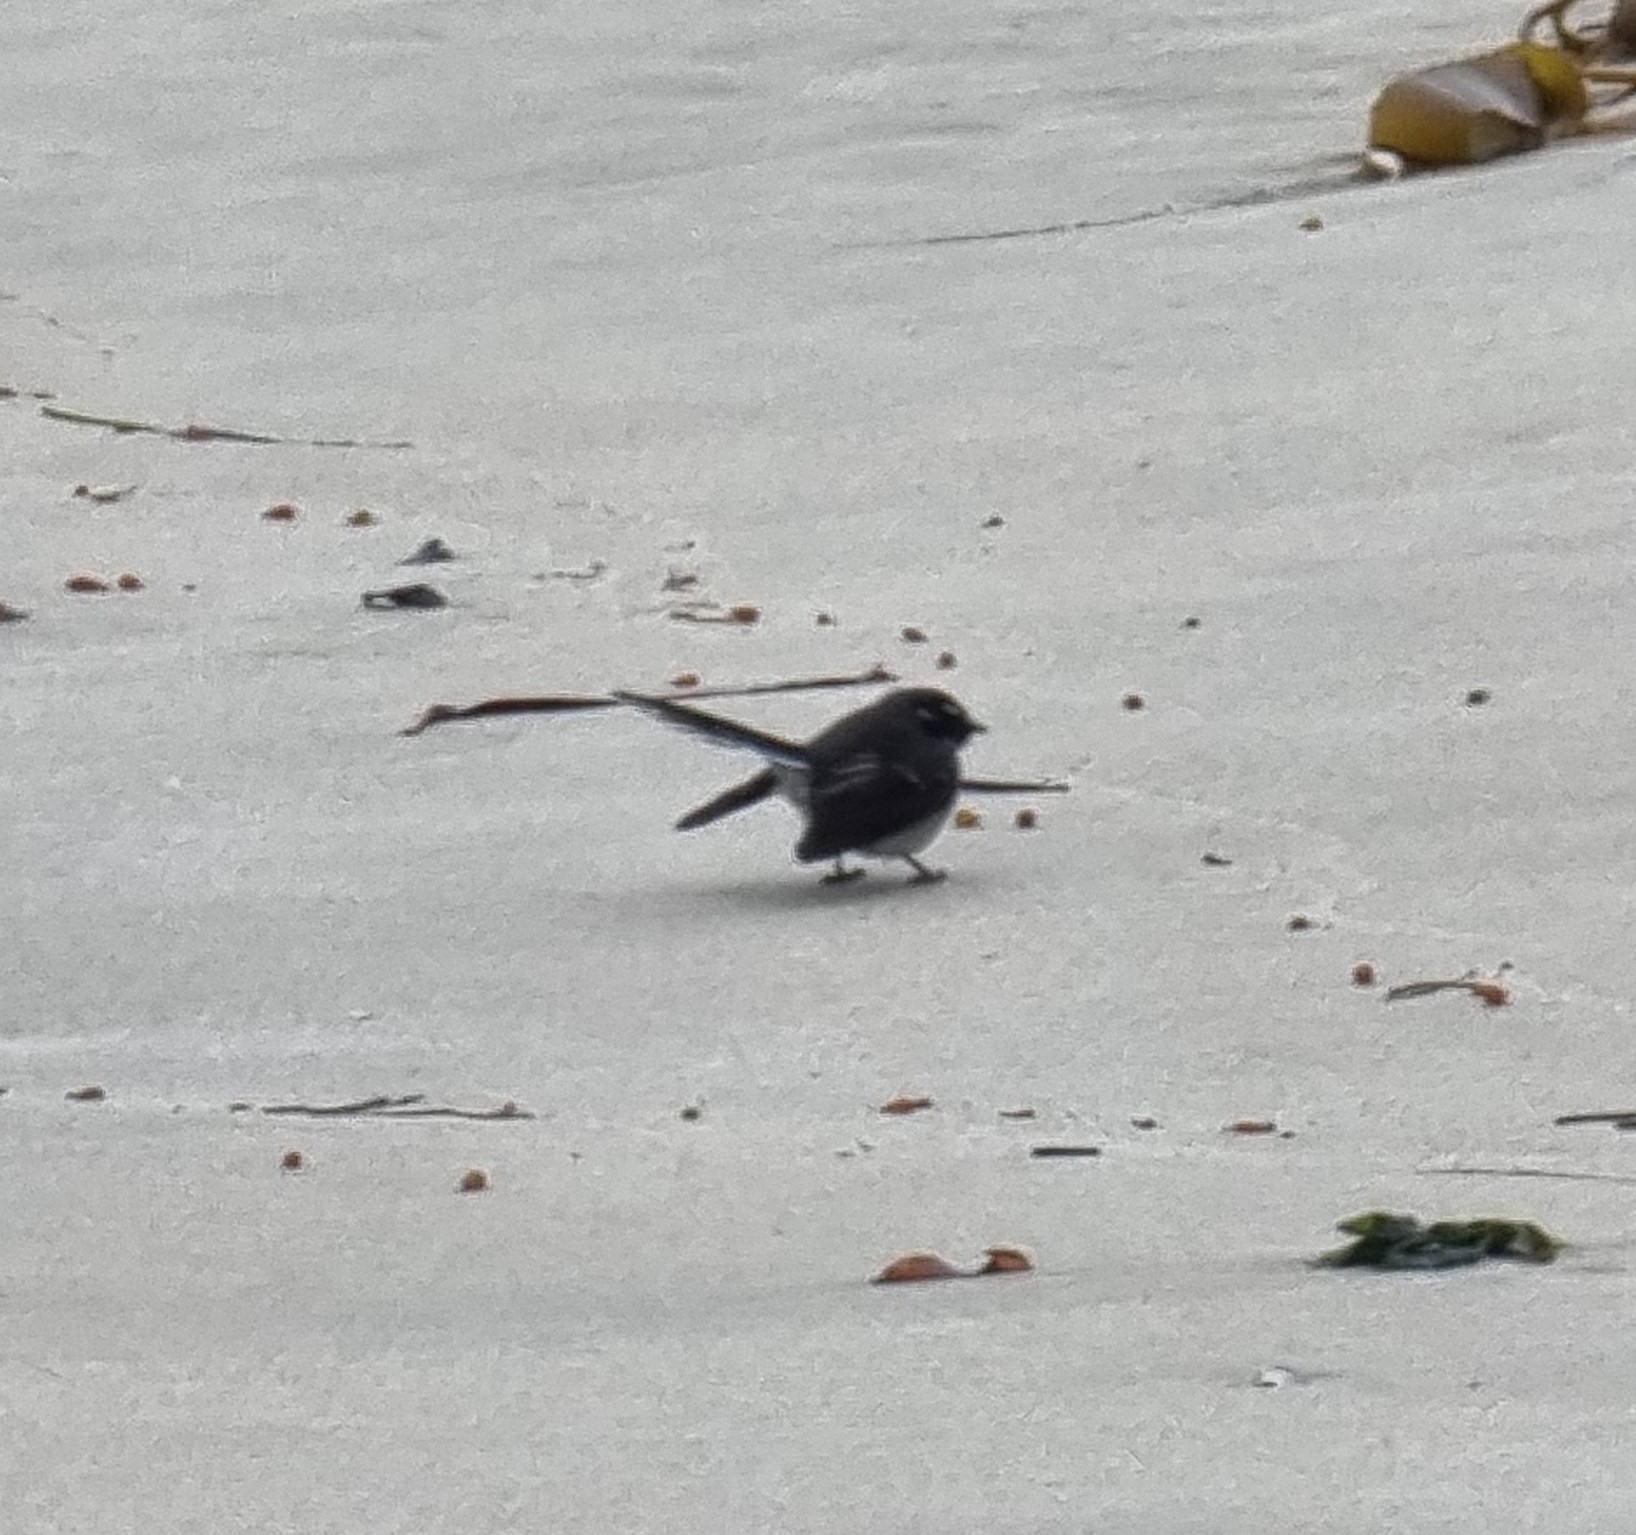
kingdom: Animalia
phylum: Chordata
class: Aves
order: Passeriformes
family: Rhipiduridae
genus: Rhipidura
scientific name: Rhipidura albiscapa
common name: Grey fantail
